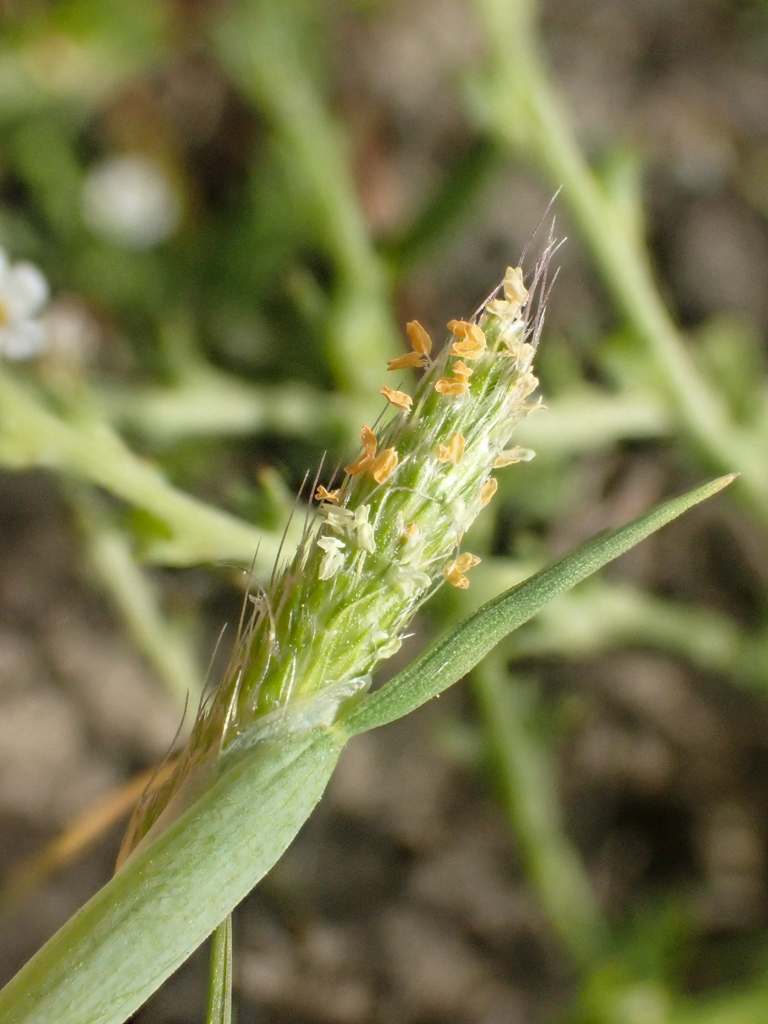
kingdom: Plantae
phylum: Tracheophyta
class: Liliopsida
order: Poales
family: Poaceae
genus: Alopecurus
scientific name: Alopecurus saccatus
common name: Pacific foxtail
